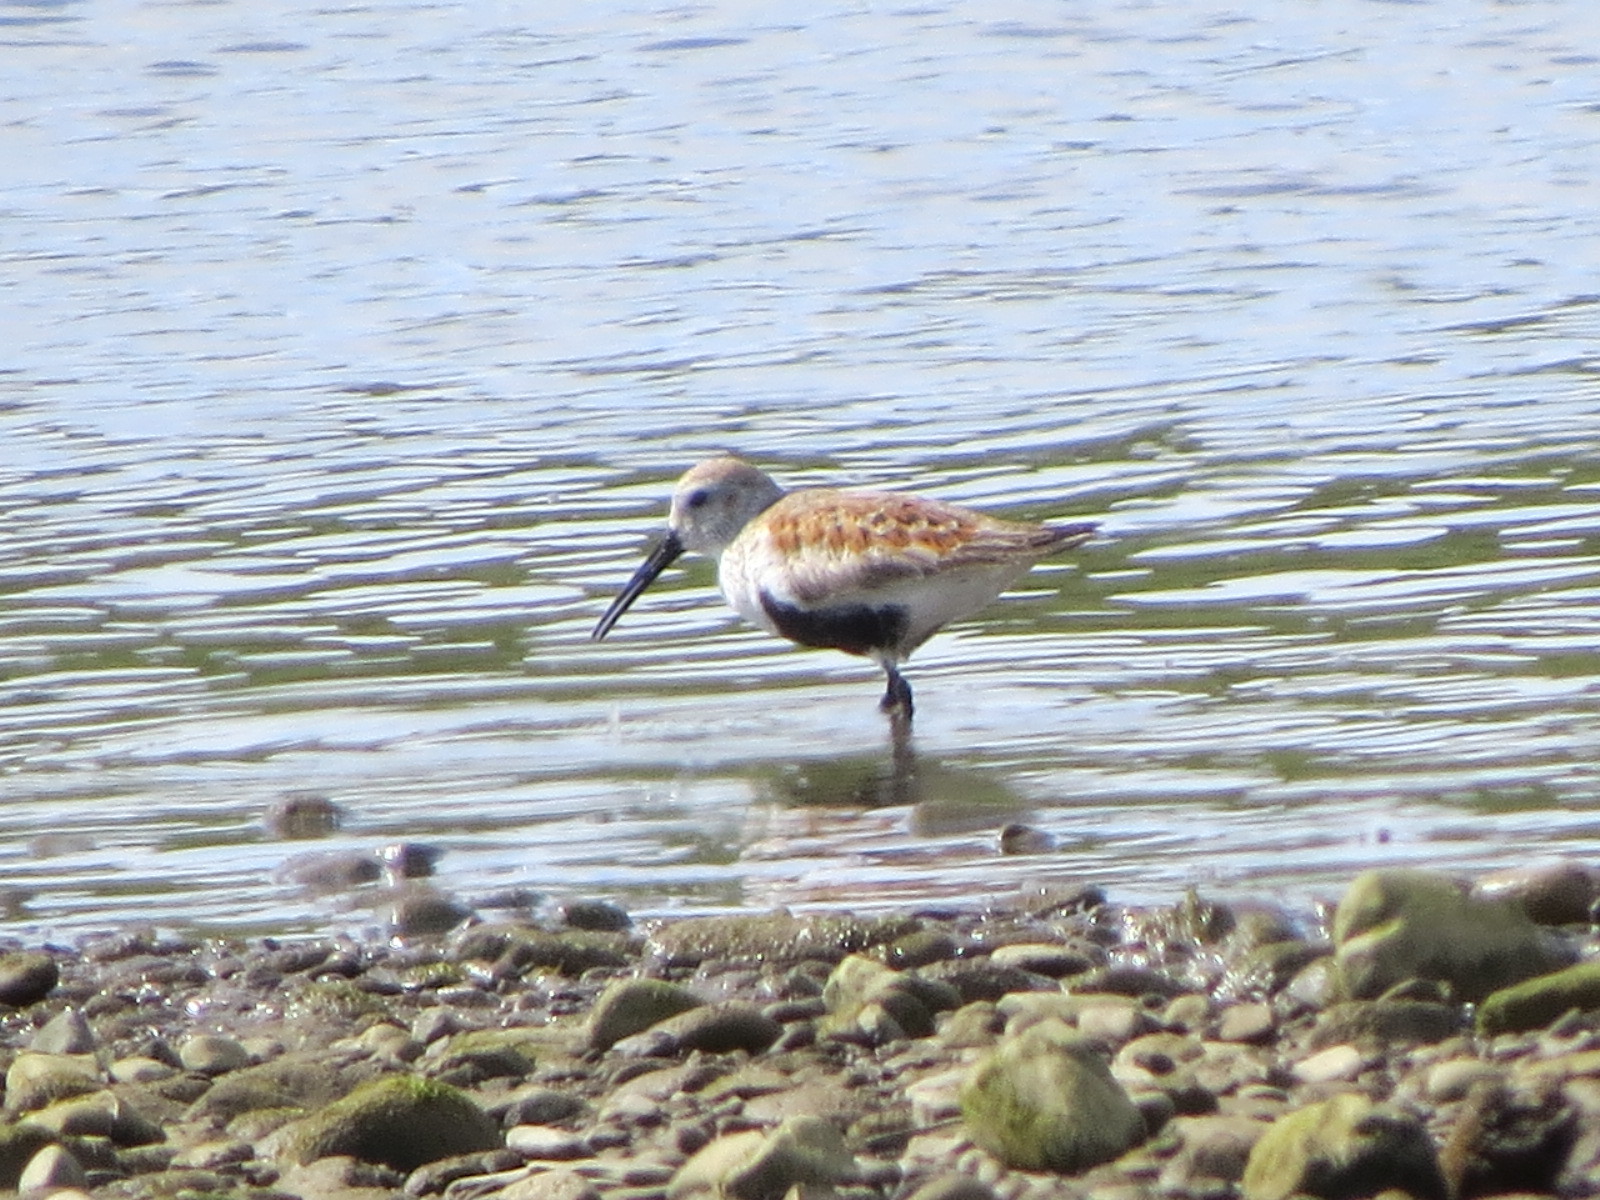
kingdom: Animalia
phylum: Chordata
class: Aves
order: Charadriiformes
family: Scolopacidae
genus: Calidris
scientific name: Calidris alpina
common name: Dunlin
